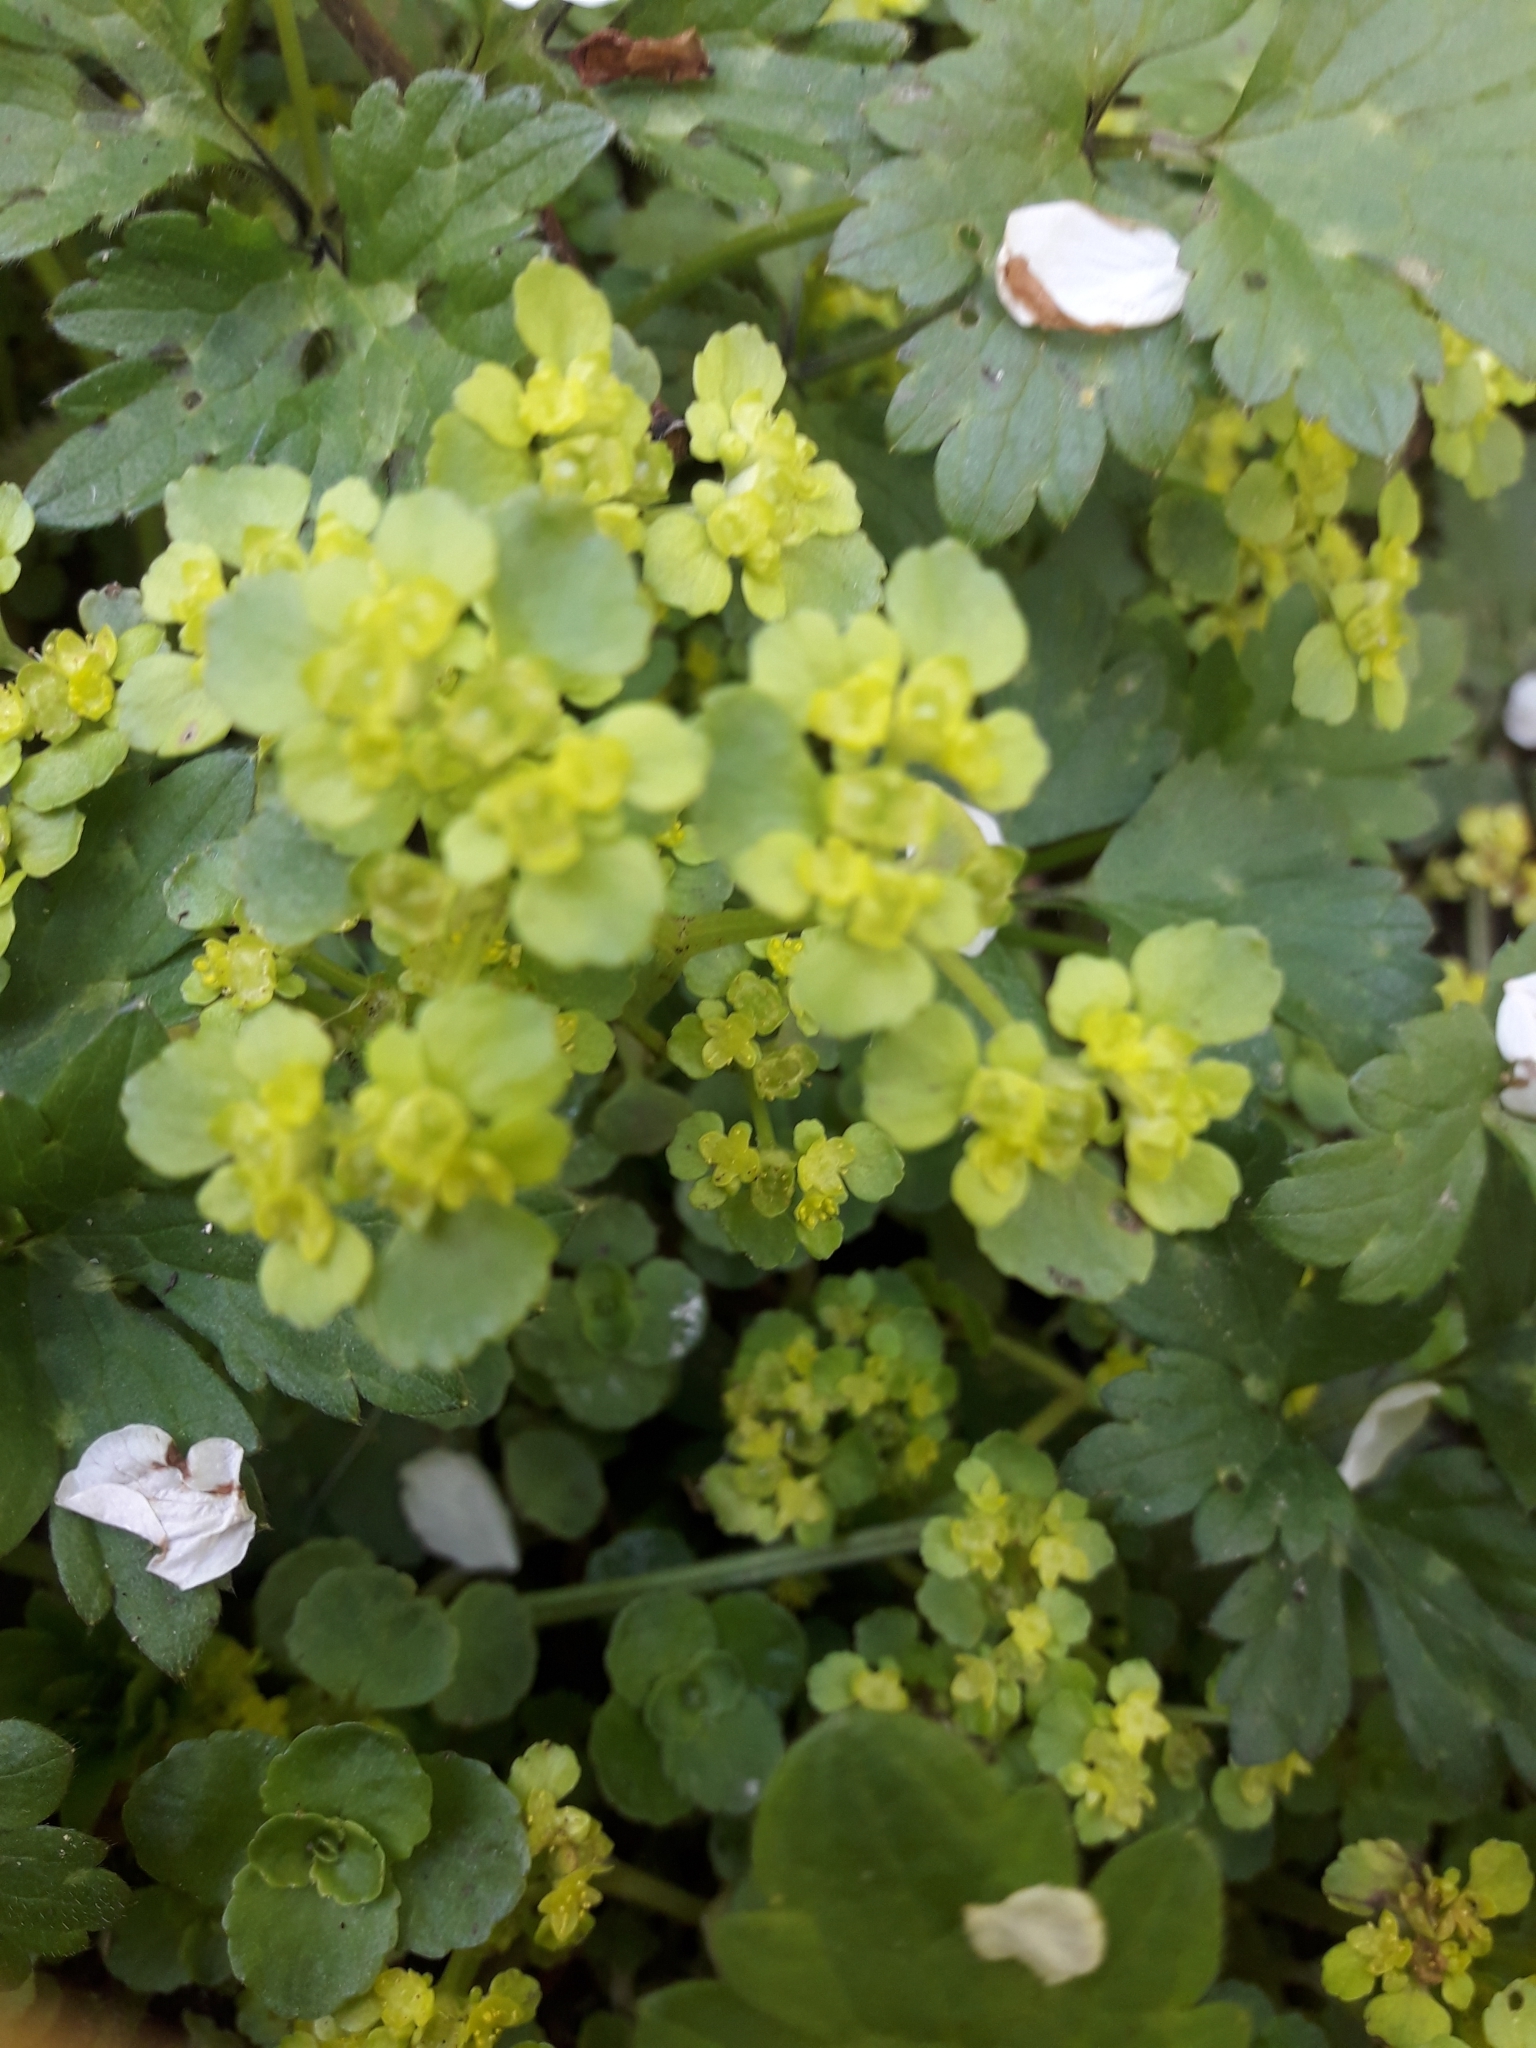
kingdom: Plantae
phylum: Tracheophyta
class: Magnoliopsida
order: Saxifragales
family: Saxifragaceae
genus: Chrysosplenium
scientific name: Chrysosplenium oppositifolium
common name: Opposite-leaved golden-saxifrage
